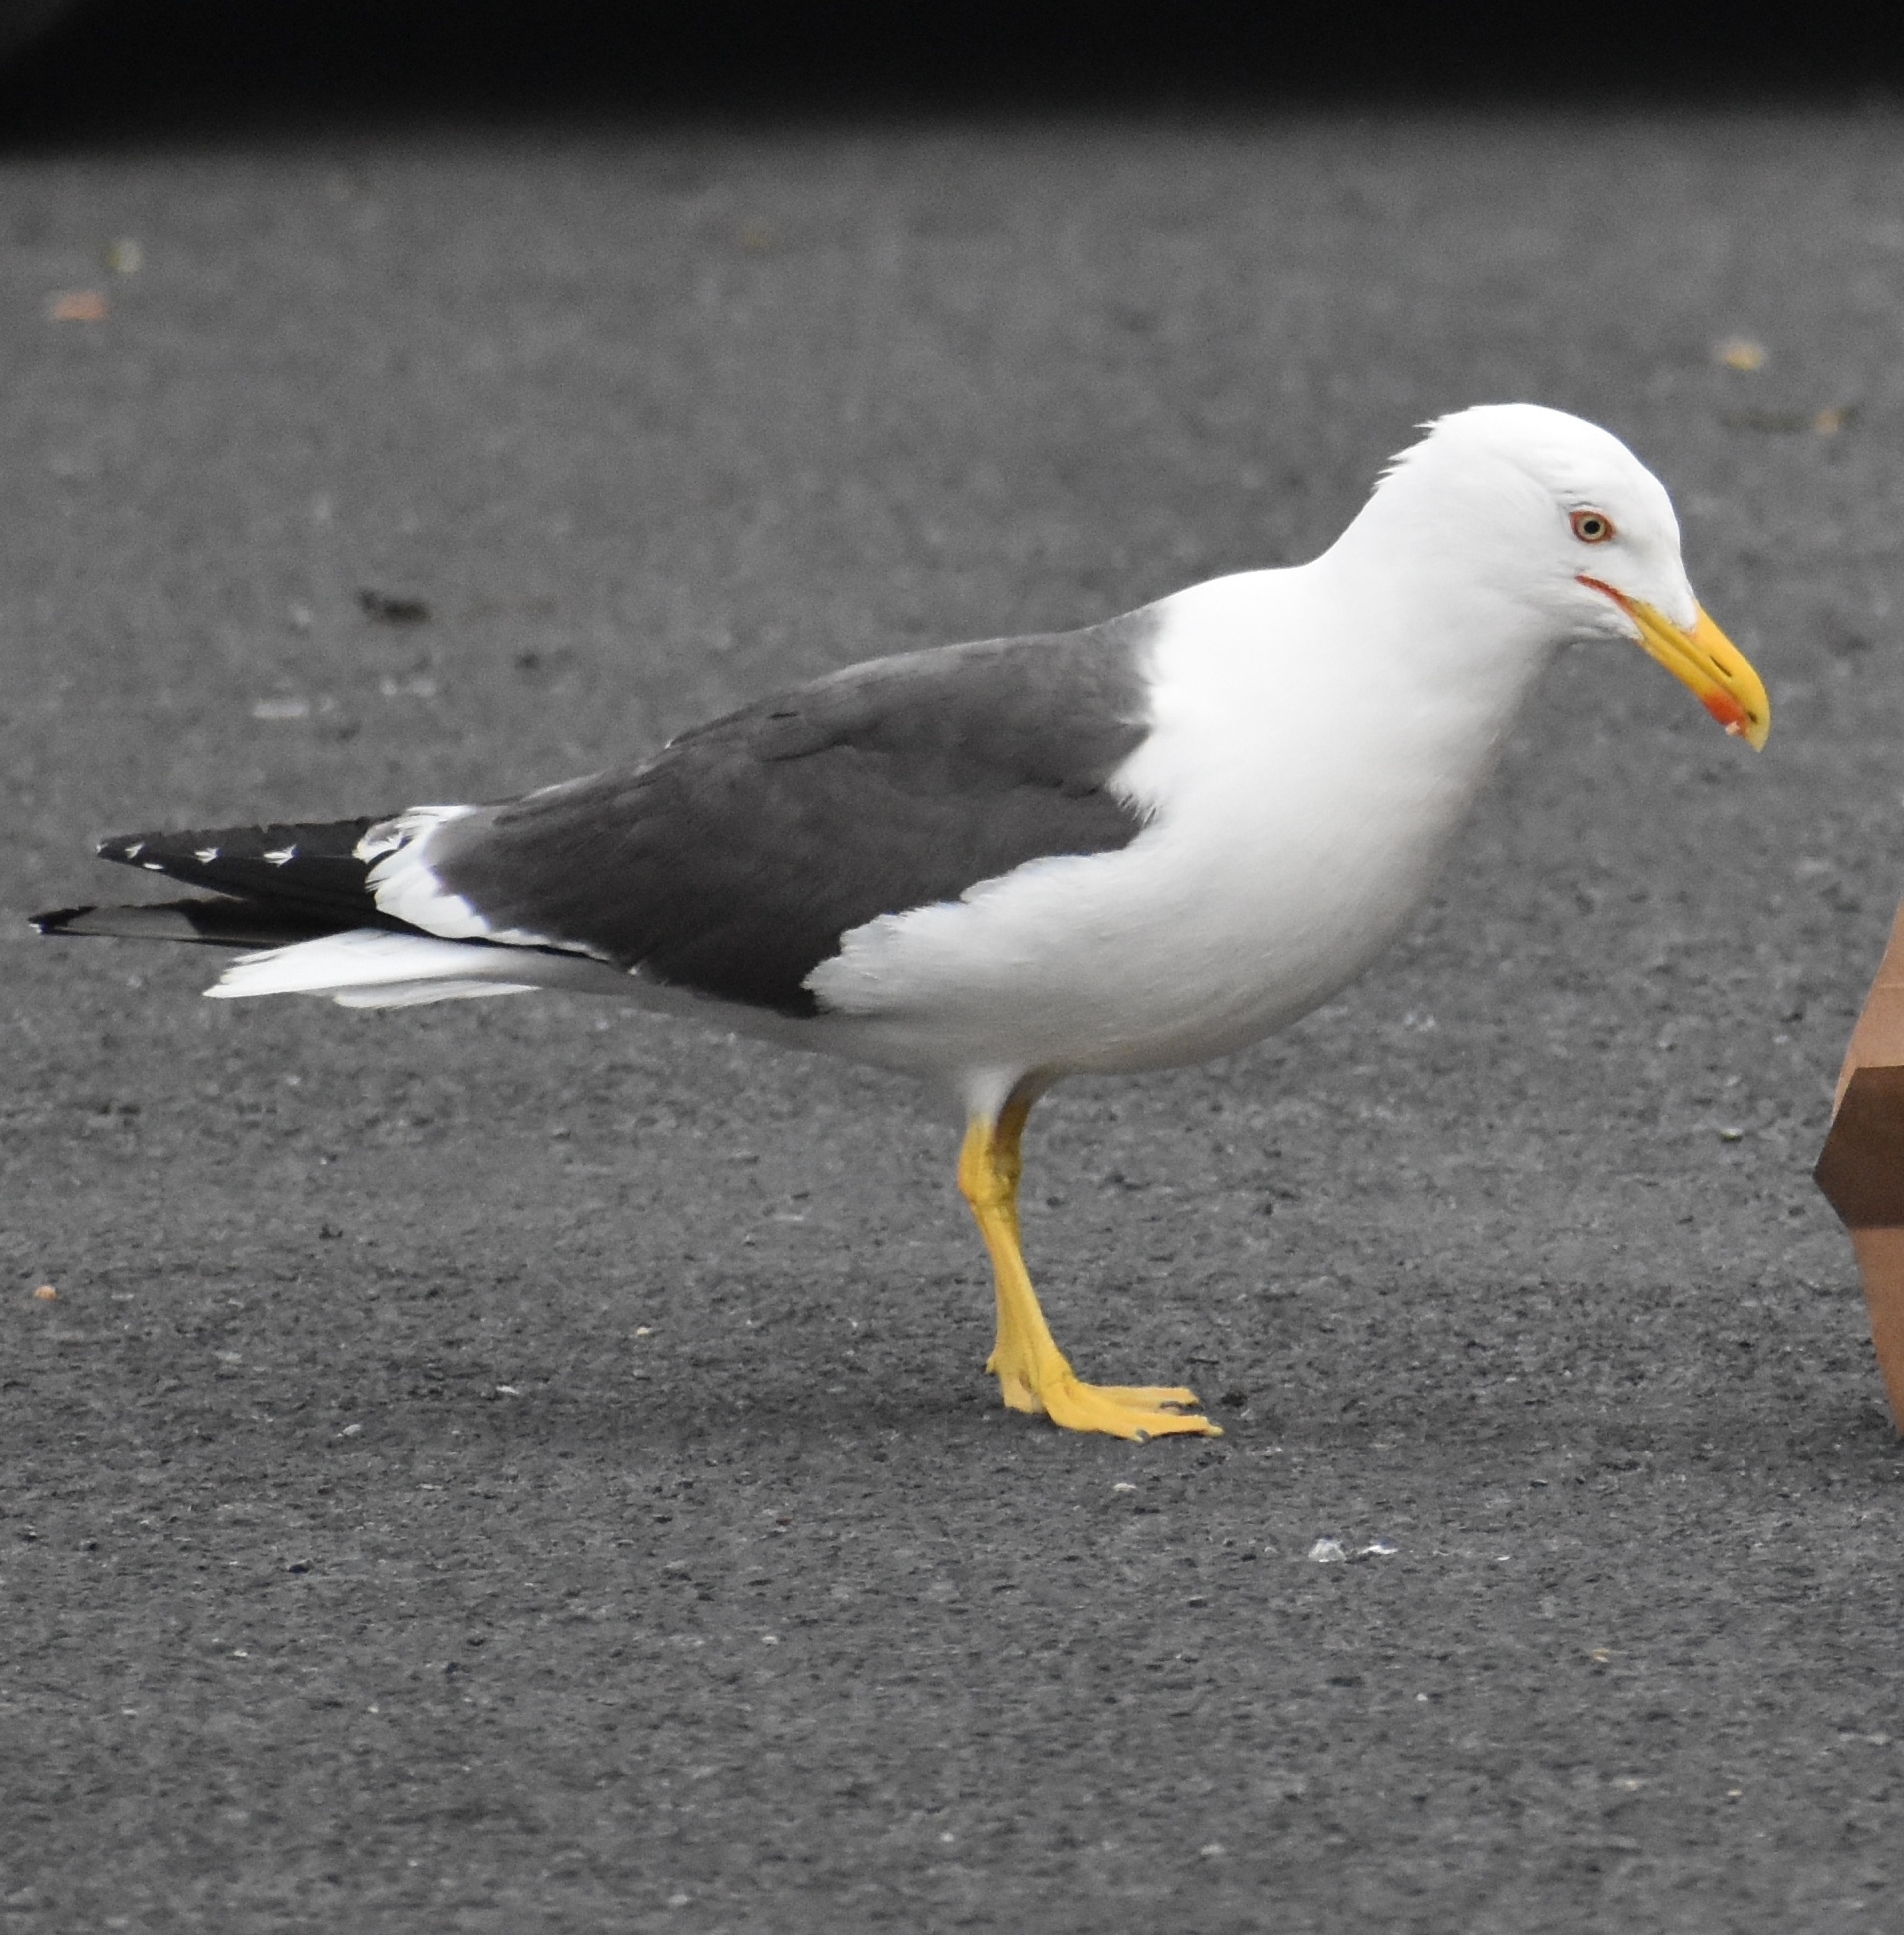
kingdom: Animalia
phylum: Chordata
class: Aves
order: Charadriiformes
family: Laridae
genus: Larus
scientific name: Larus fuscus
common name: Lesser black-backed gull
